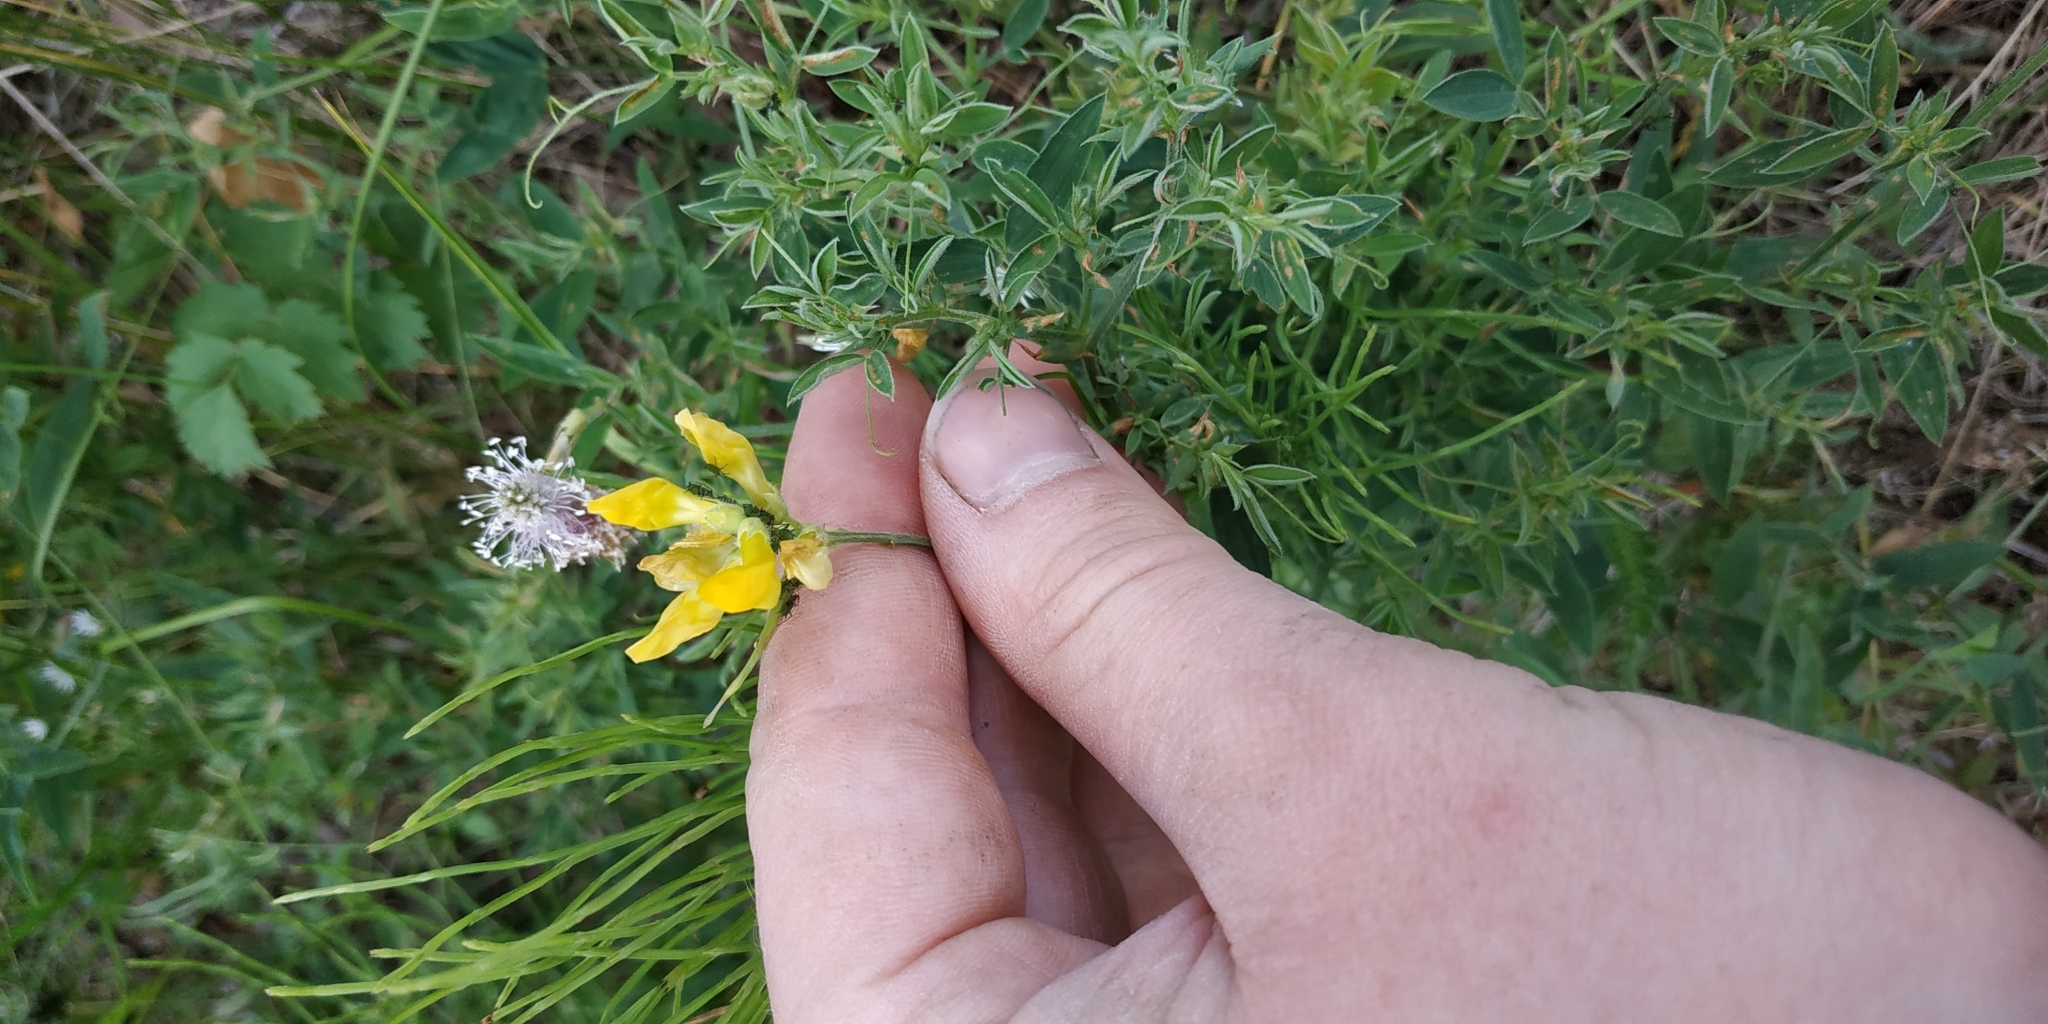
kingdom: Plantae
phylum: Tracheophyta
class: Magnoliopsida
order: Fabales
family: Fabaceae
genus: Lathyrus
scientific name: Lathyrus pratensis
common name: Meadow vetchling
